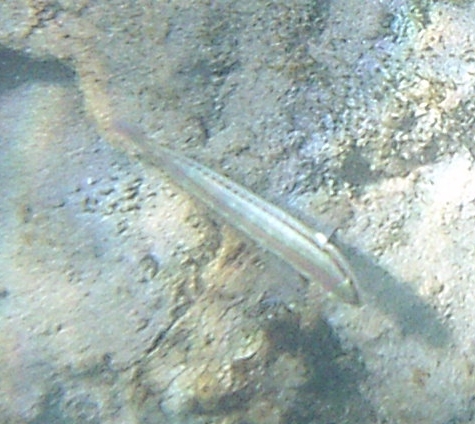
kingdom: Animalia
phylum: Chordata
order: Perciformes
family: Labridae
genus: Halichoeres
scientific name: Halichoeres bivittatus
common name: Slippery dick
